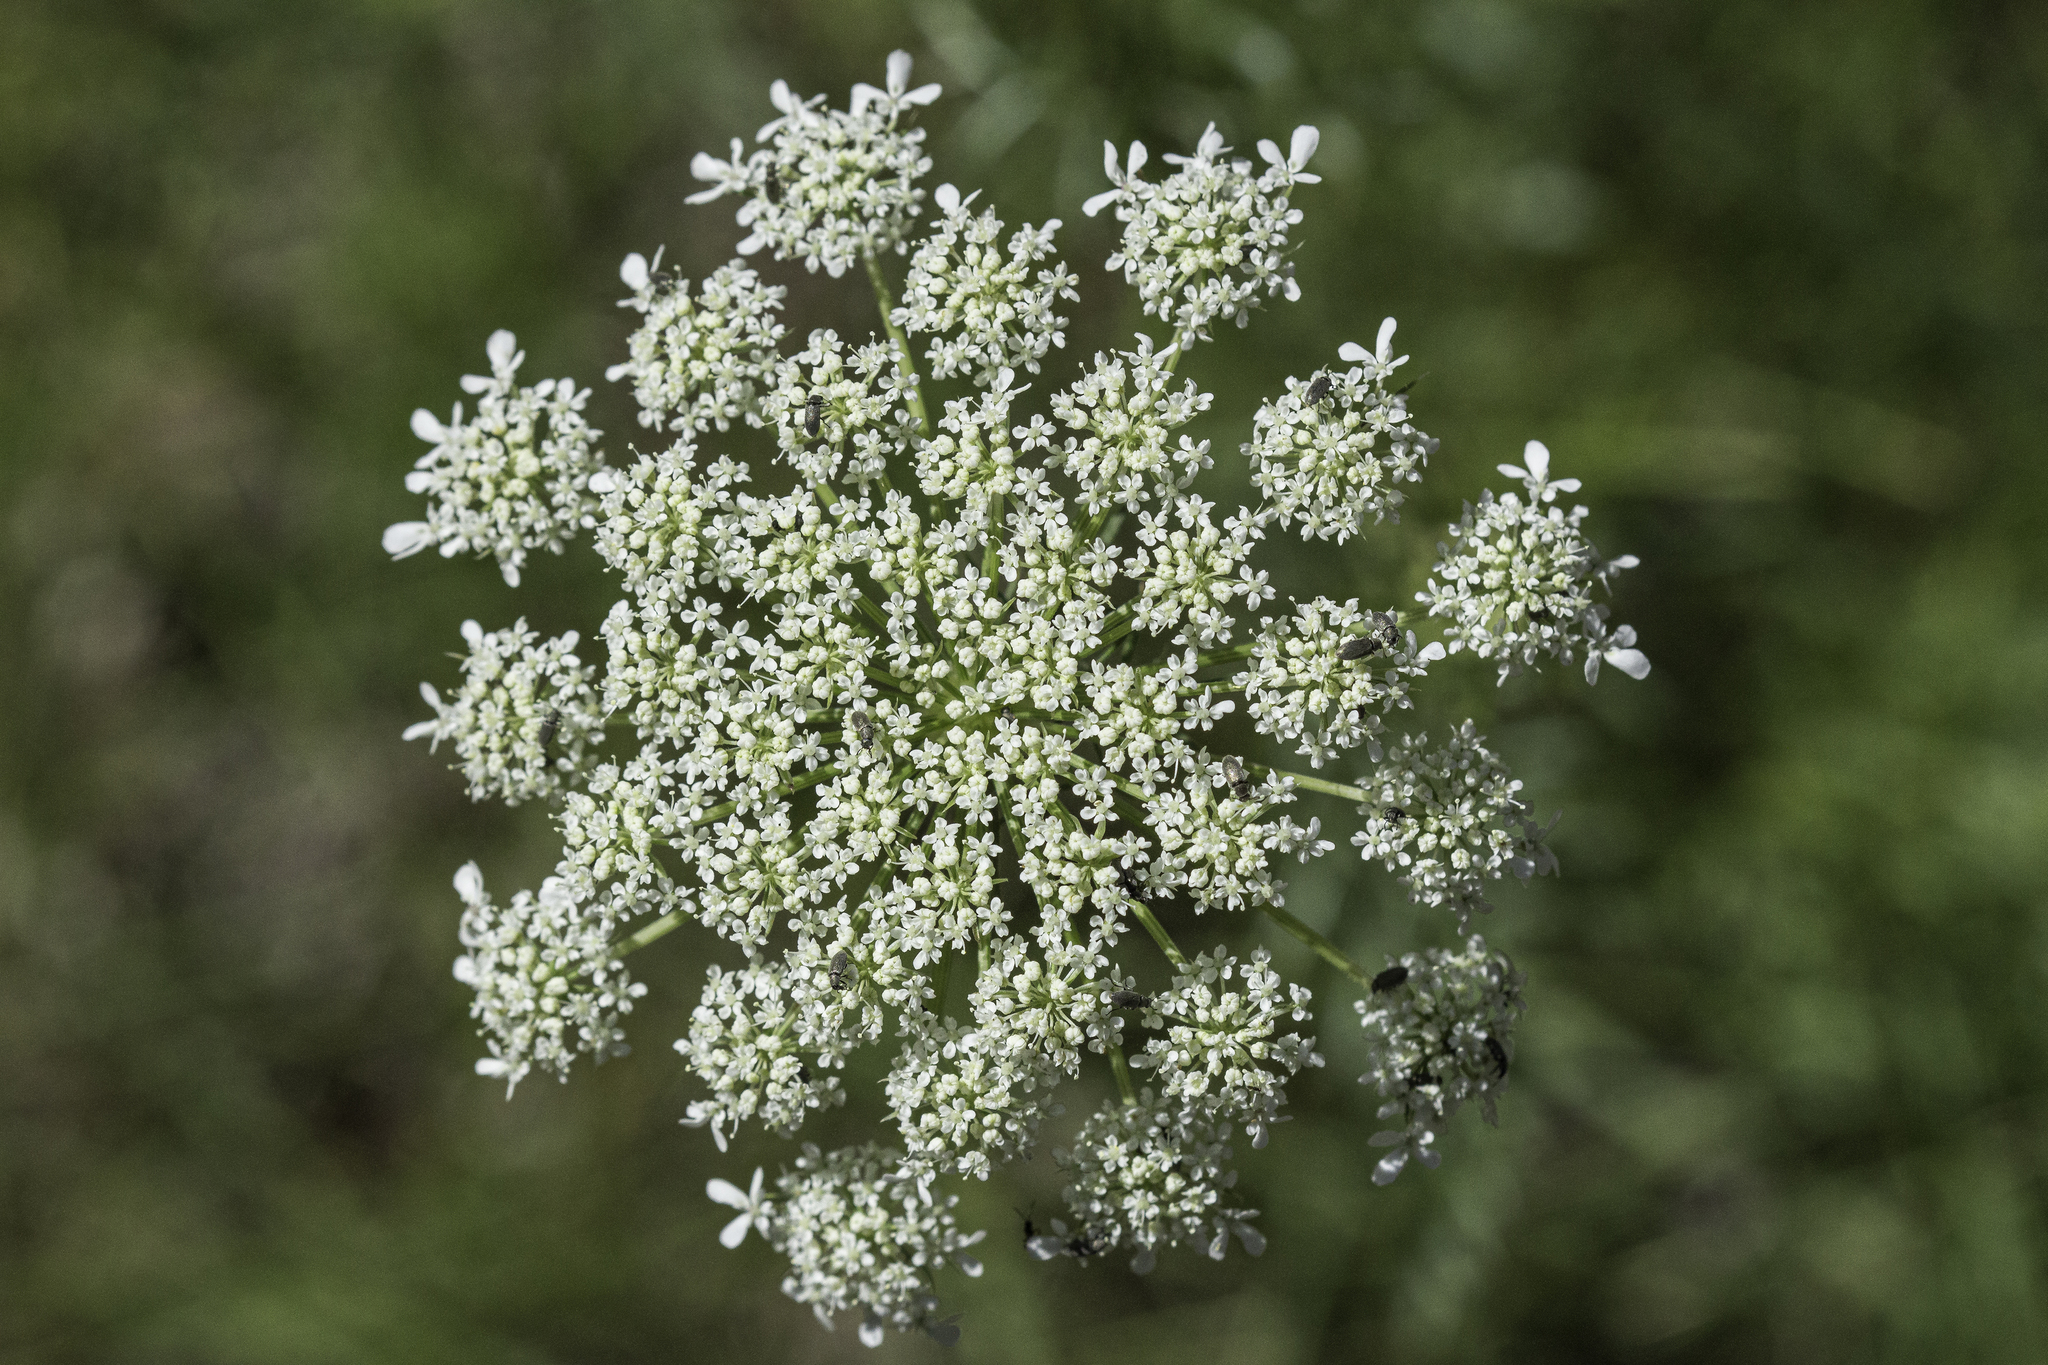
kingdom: Plantae
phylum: Tracheophyta
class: Magnoliopsida
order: Apiales
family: Apiaceae
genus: Daucus
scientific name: Daucus carota
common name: Wild carrot
